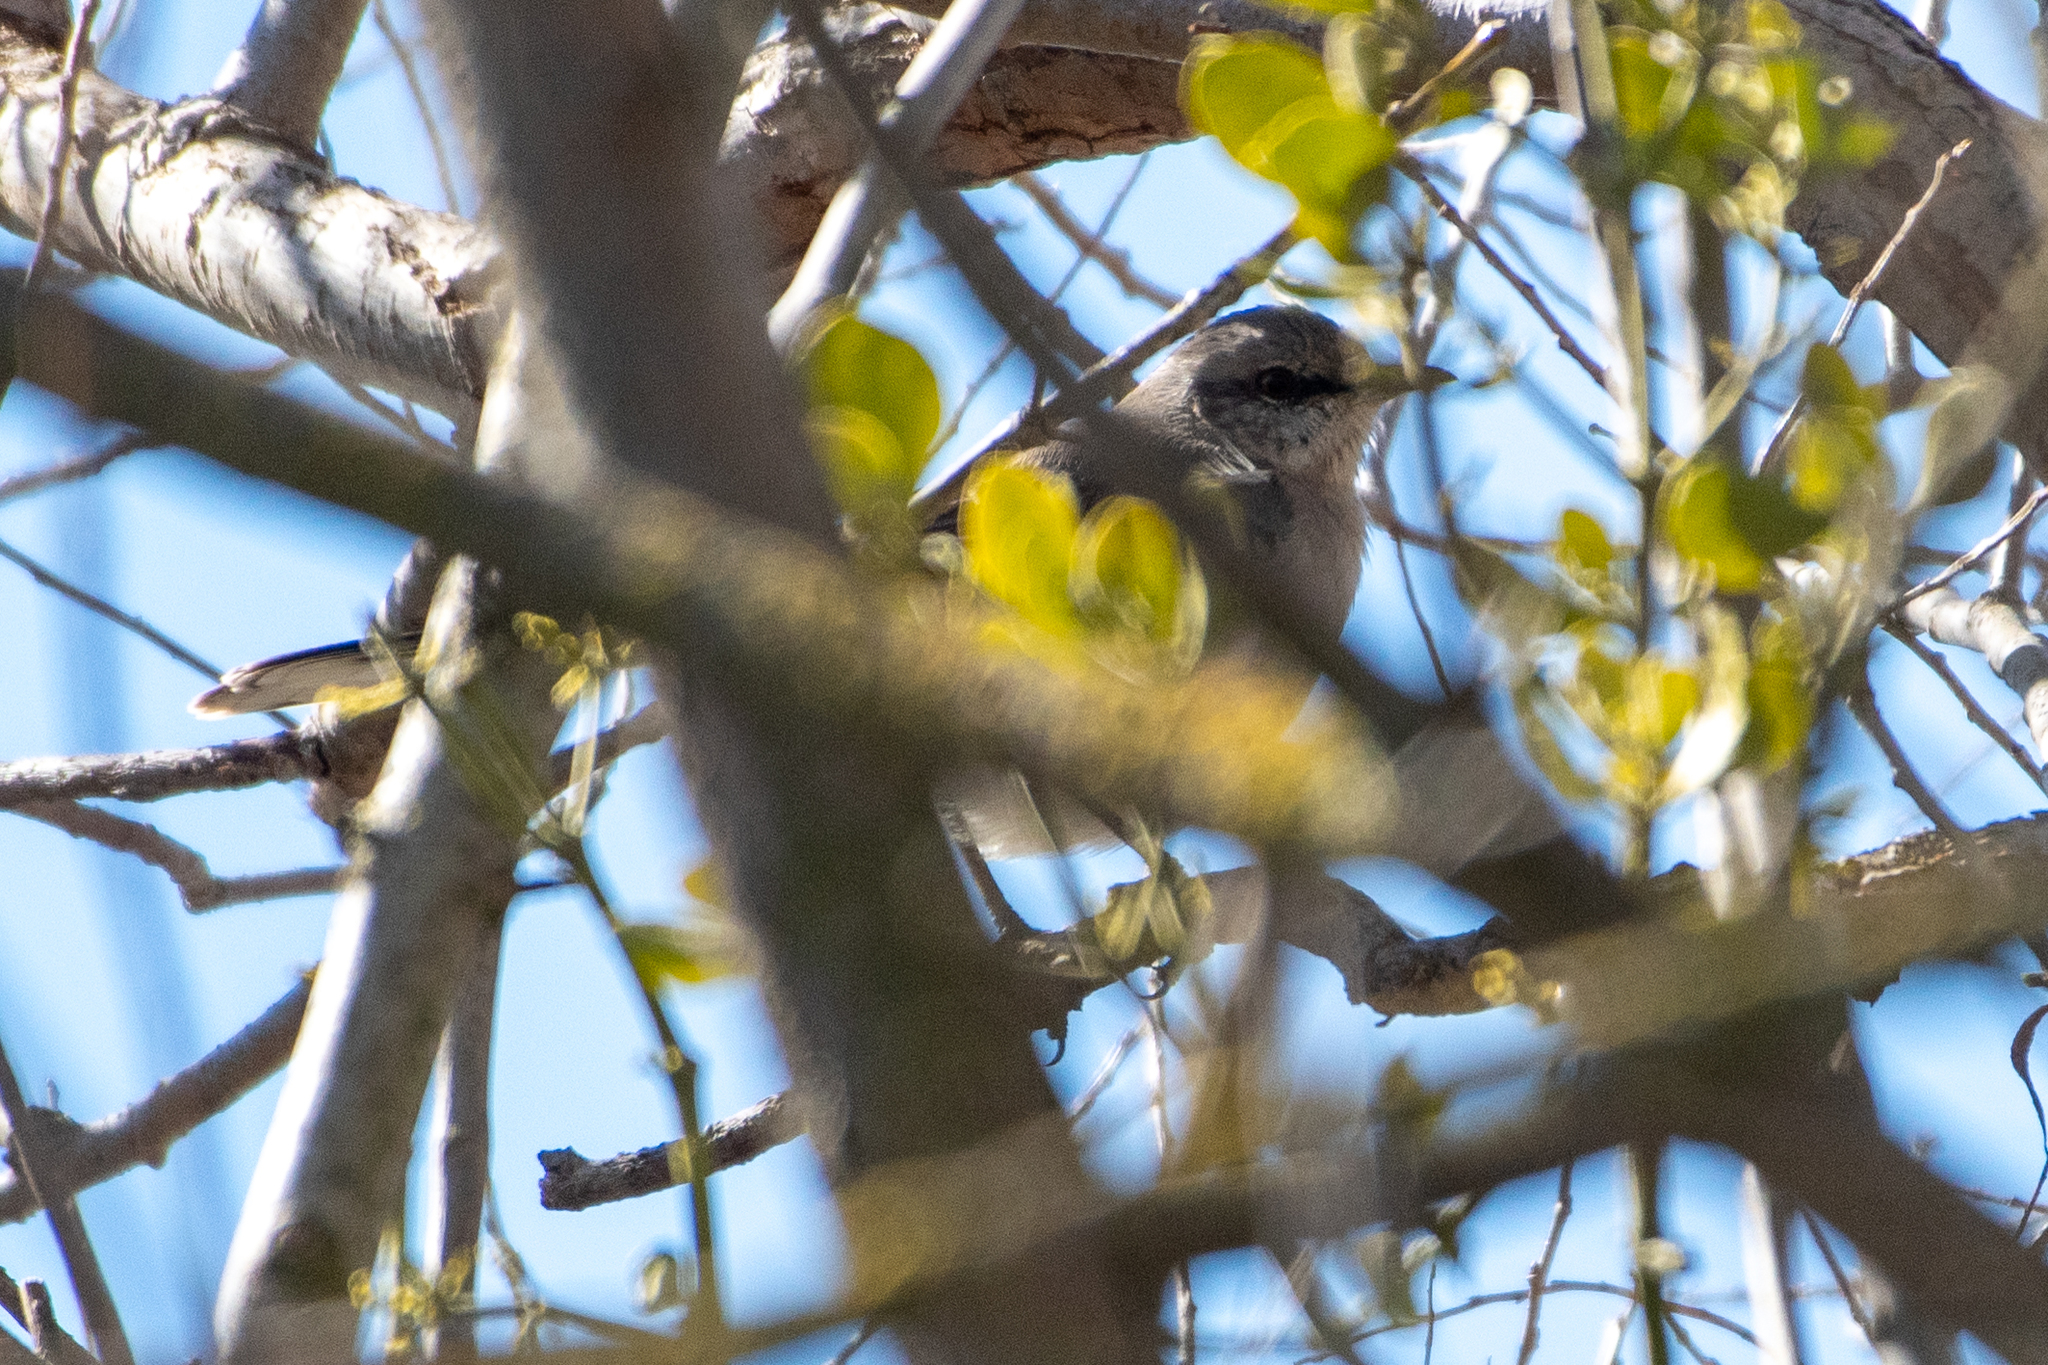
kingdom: Animalia
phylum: Chordata
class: Aves
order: Passeriformes
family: Mimidae
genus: Mimus
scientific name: Mimus polyglottos
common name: Northern mockingbird
